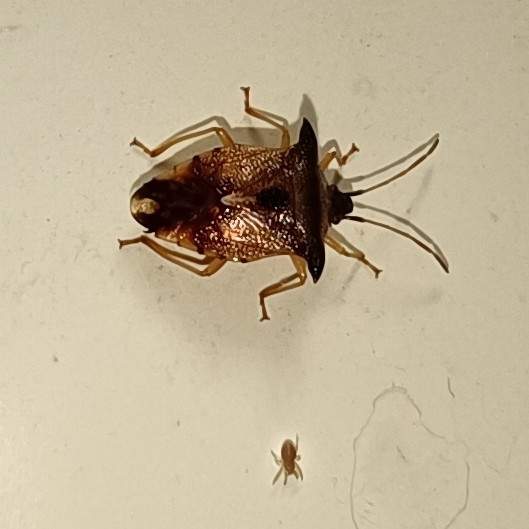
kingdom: Animalia
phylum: Arthropoda
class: Insecta
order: Hemiptera
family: Acanthosomatidae
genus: Elasmucha
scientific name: Elasmucha ferrugata
